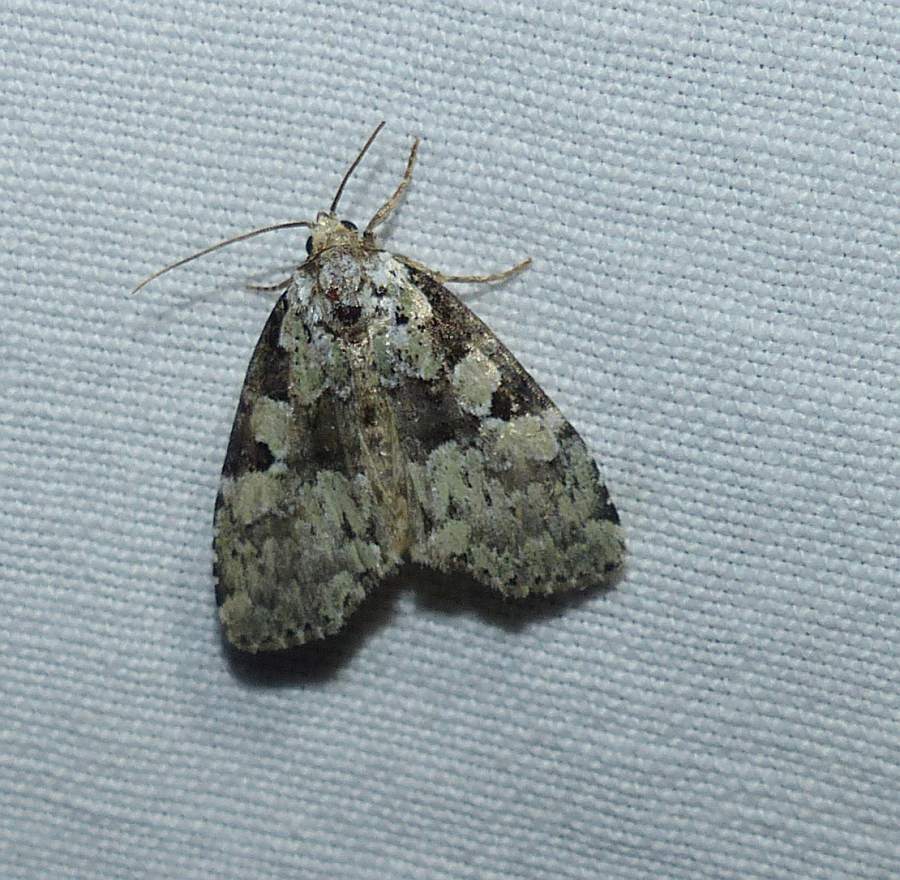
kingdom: Animalia
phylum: Arthropoda
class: Insecta
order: Lepidoptera
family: Noctuidae
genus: Leuconycta
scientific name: Leuconycta lepidula
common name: Marbled-green leuconycta moth
